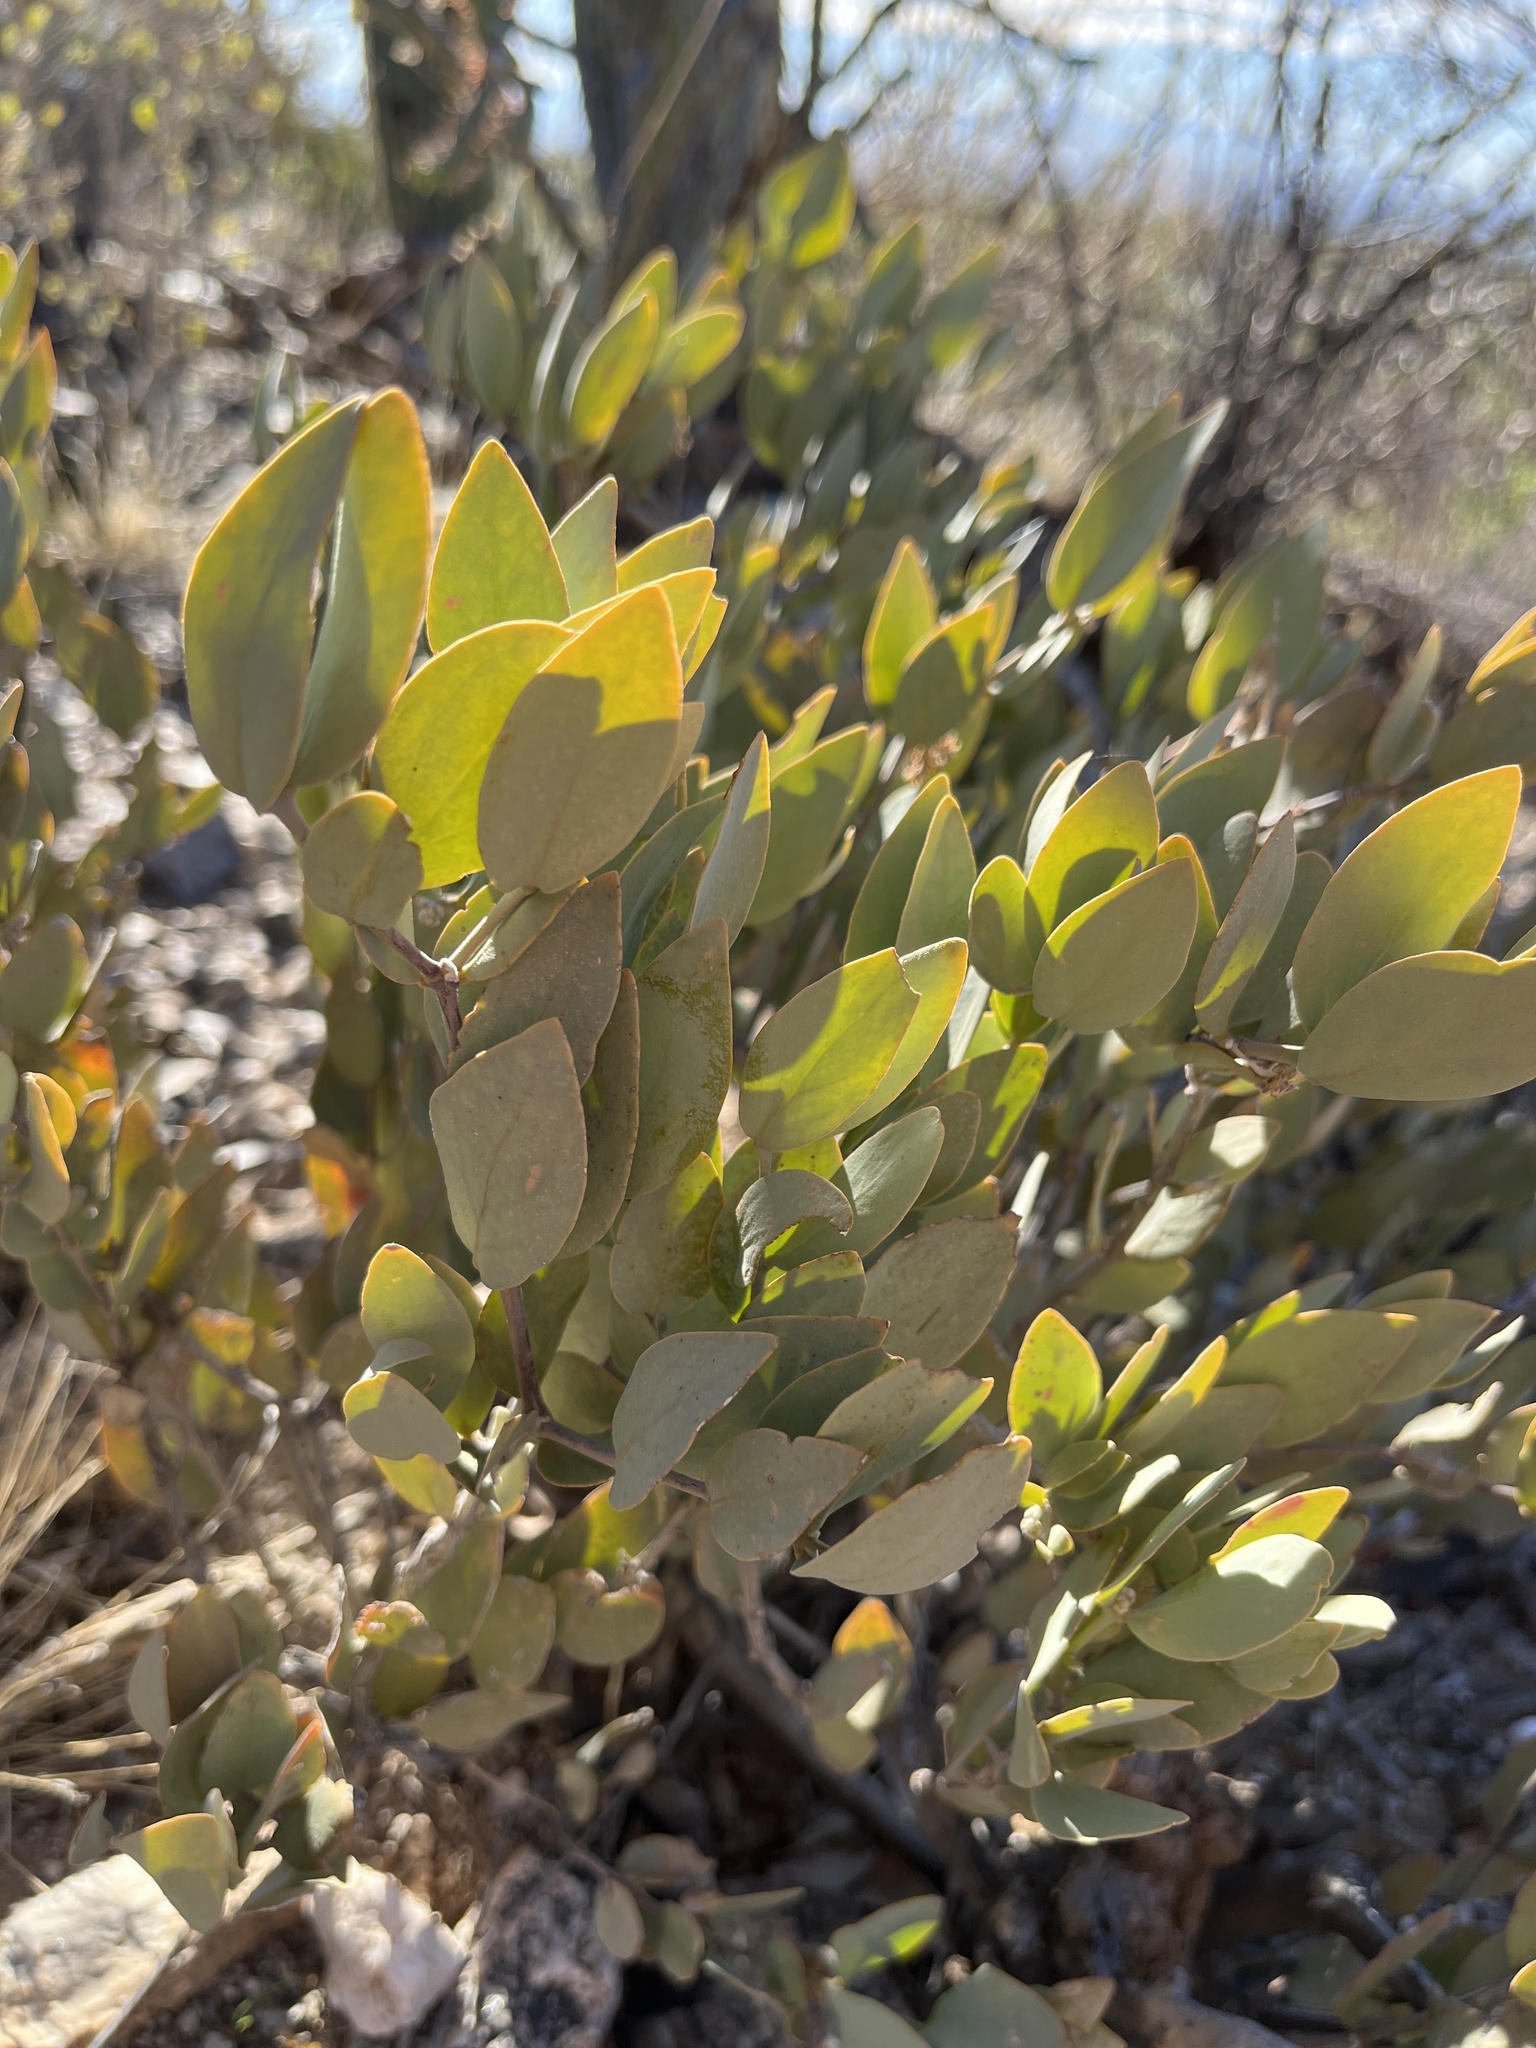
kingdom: Plantae
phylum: Tracheophyta
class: Magnoliopsida
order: Caryophyllales
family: Simmondsiaceae
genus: Simmondsia
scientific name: Simmondsia chinensis
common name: Jojoba
